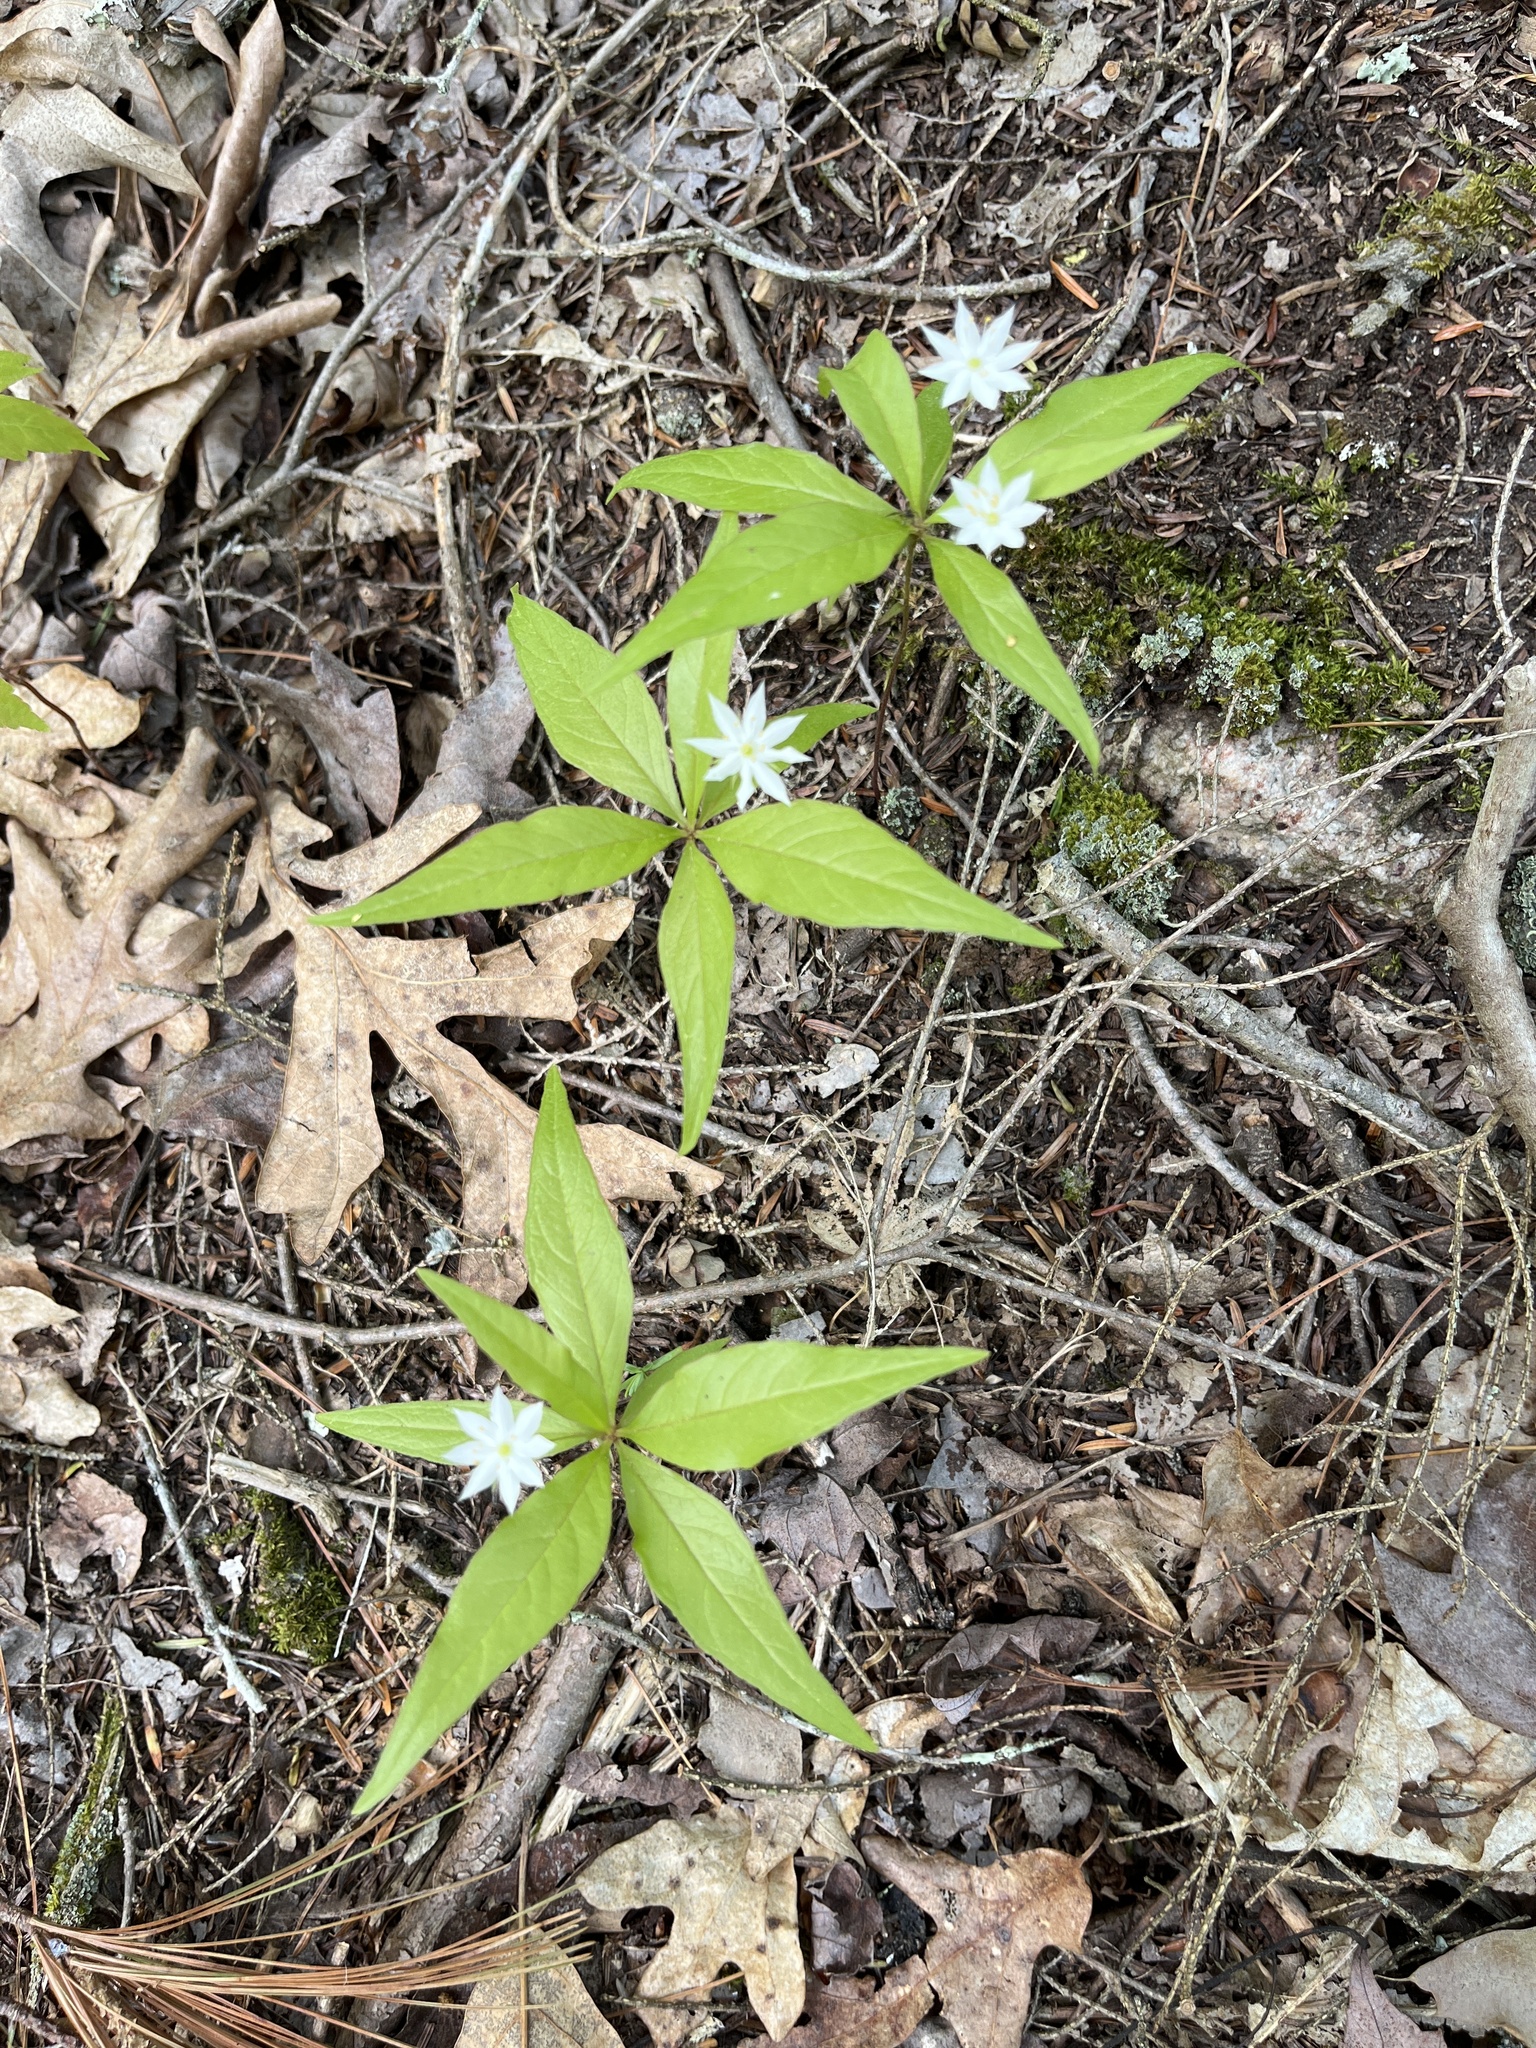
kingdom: Plantae
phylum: Tracheophyta
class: Magnoliopsida
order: Ericales
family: Primulaceae
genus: Lysimachia
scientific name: Lysimachia borealis
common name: American starflower
